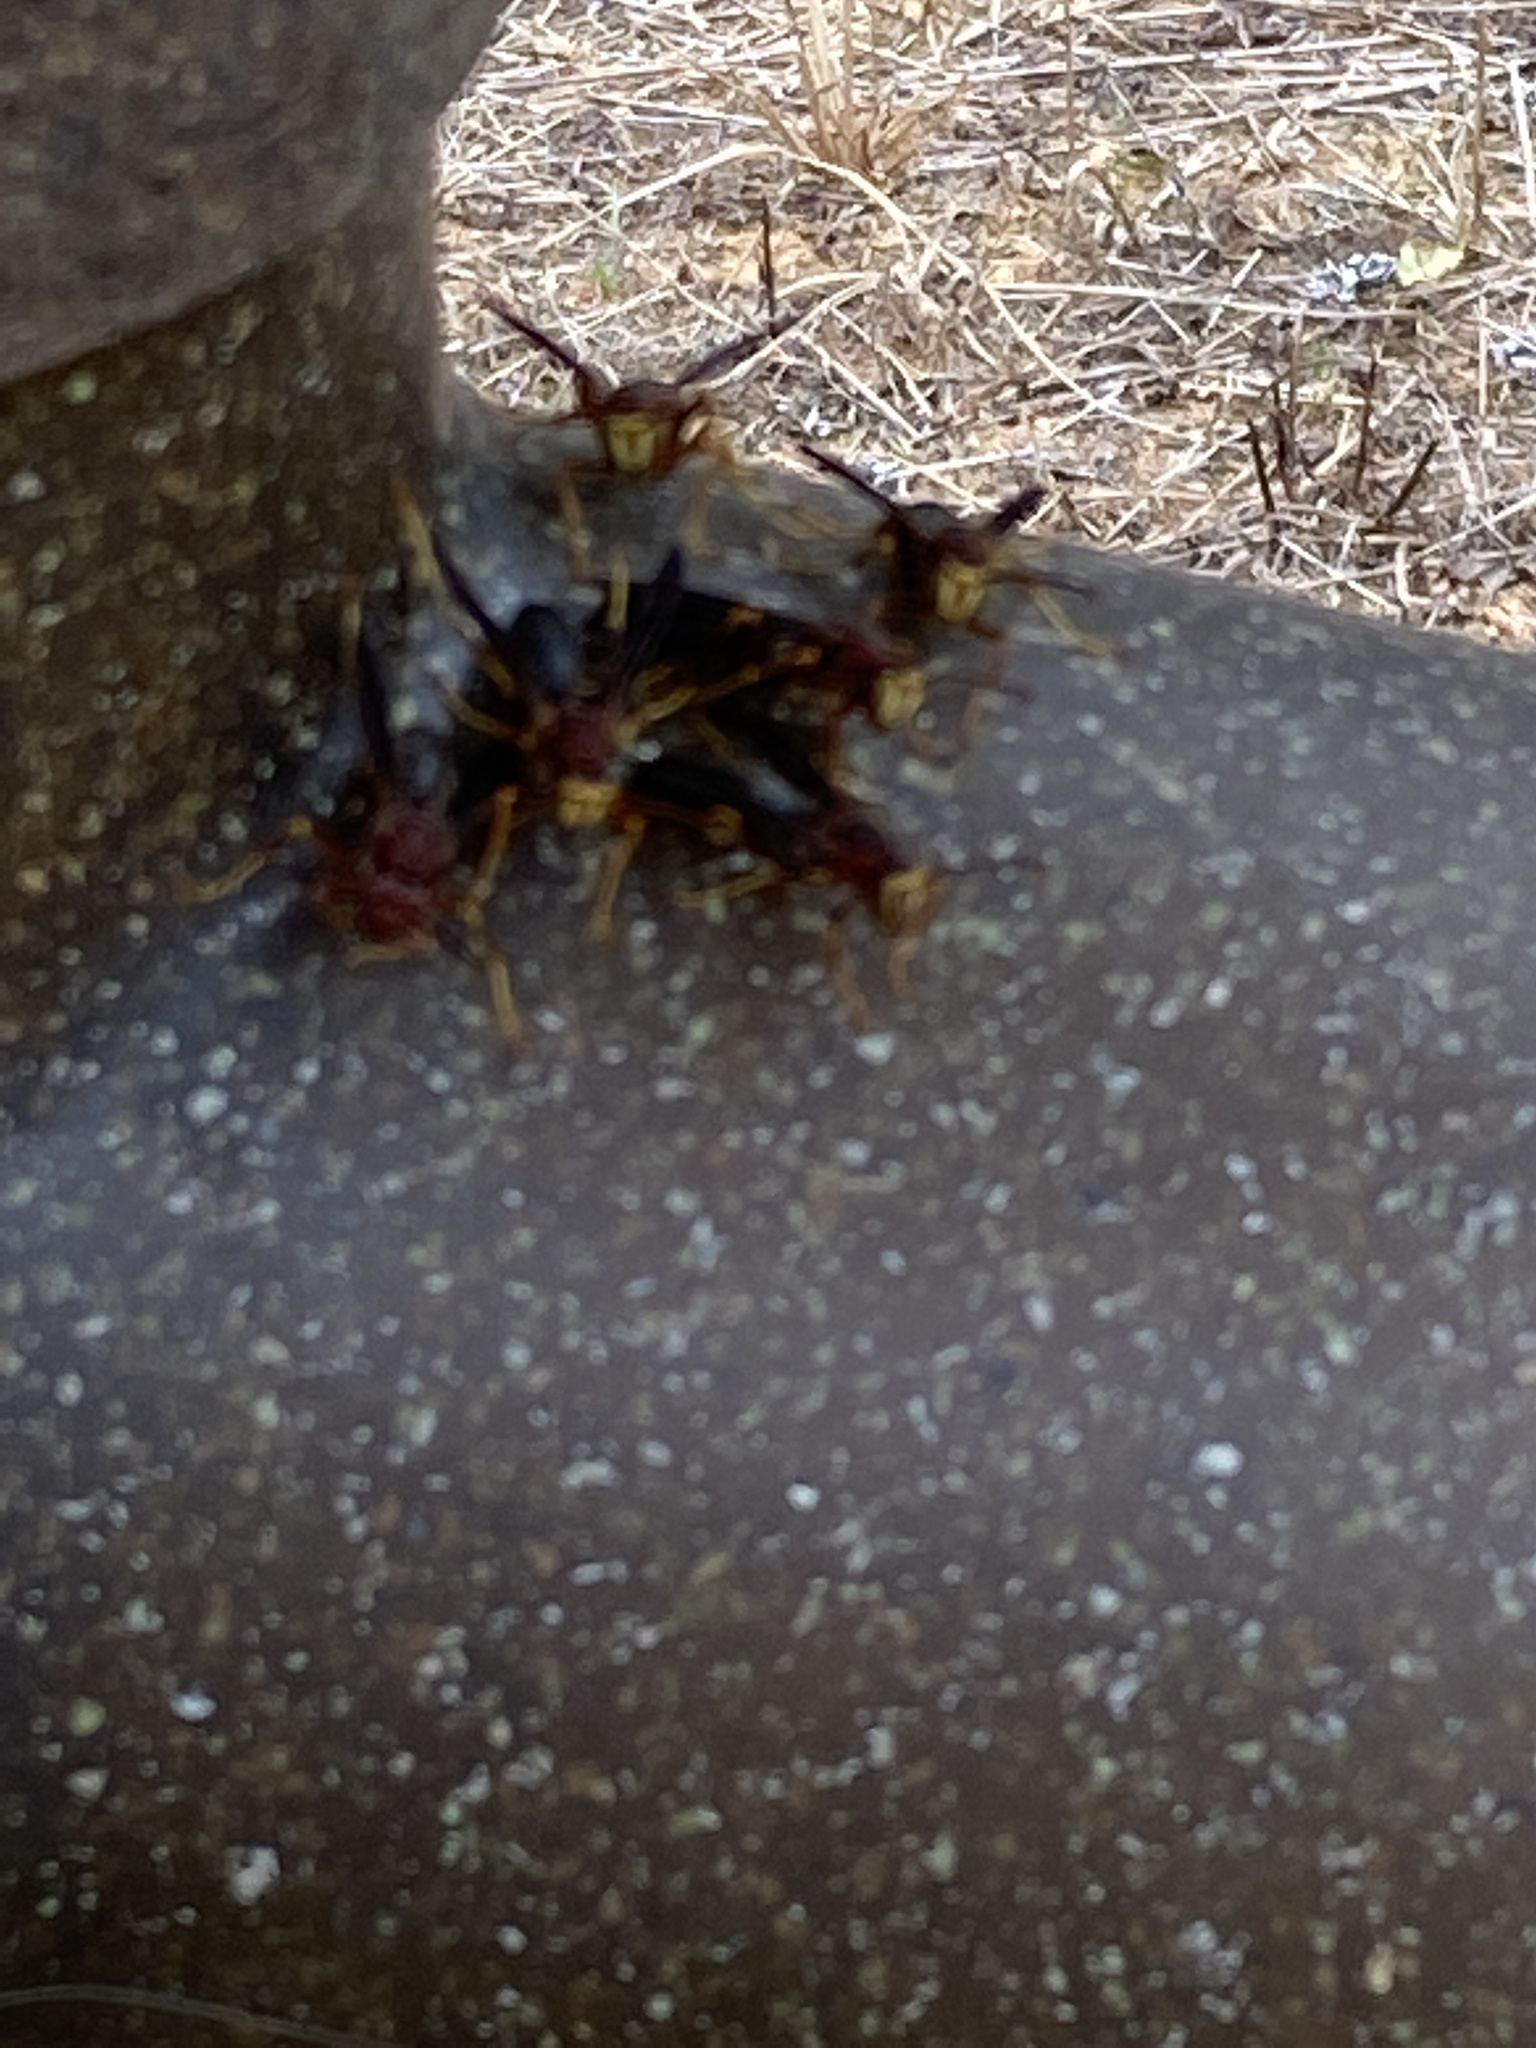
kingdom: Animalia
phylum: Arthropoda
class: Insecta
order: Hymenoptera
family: Eumenidae
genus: Polistes
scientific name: Polistes metricus
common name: Metric paper wasp
